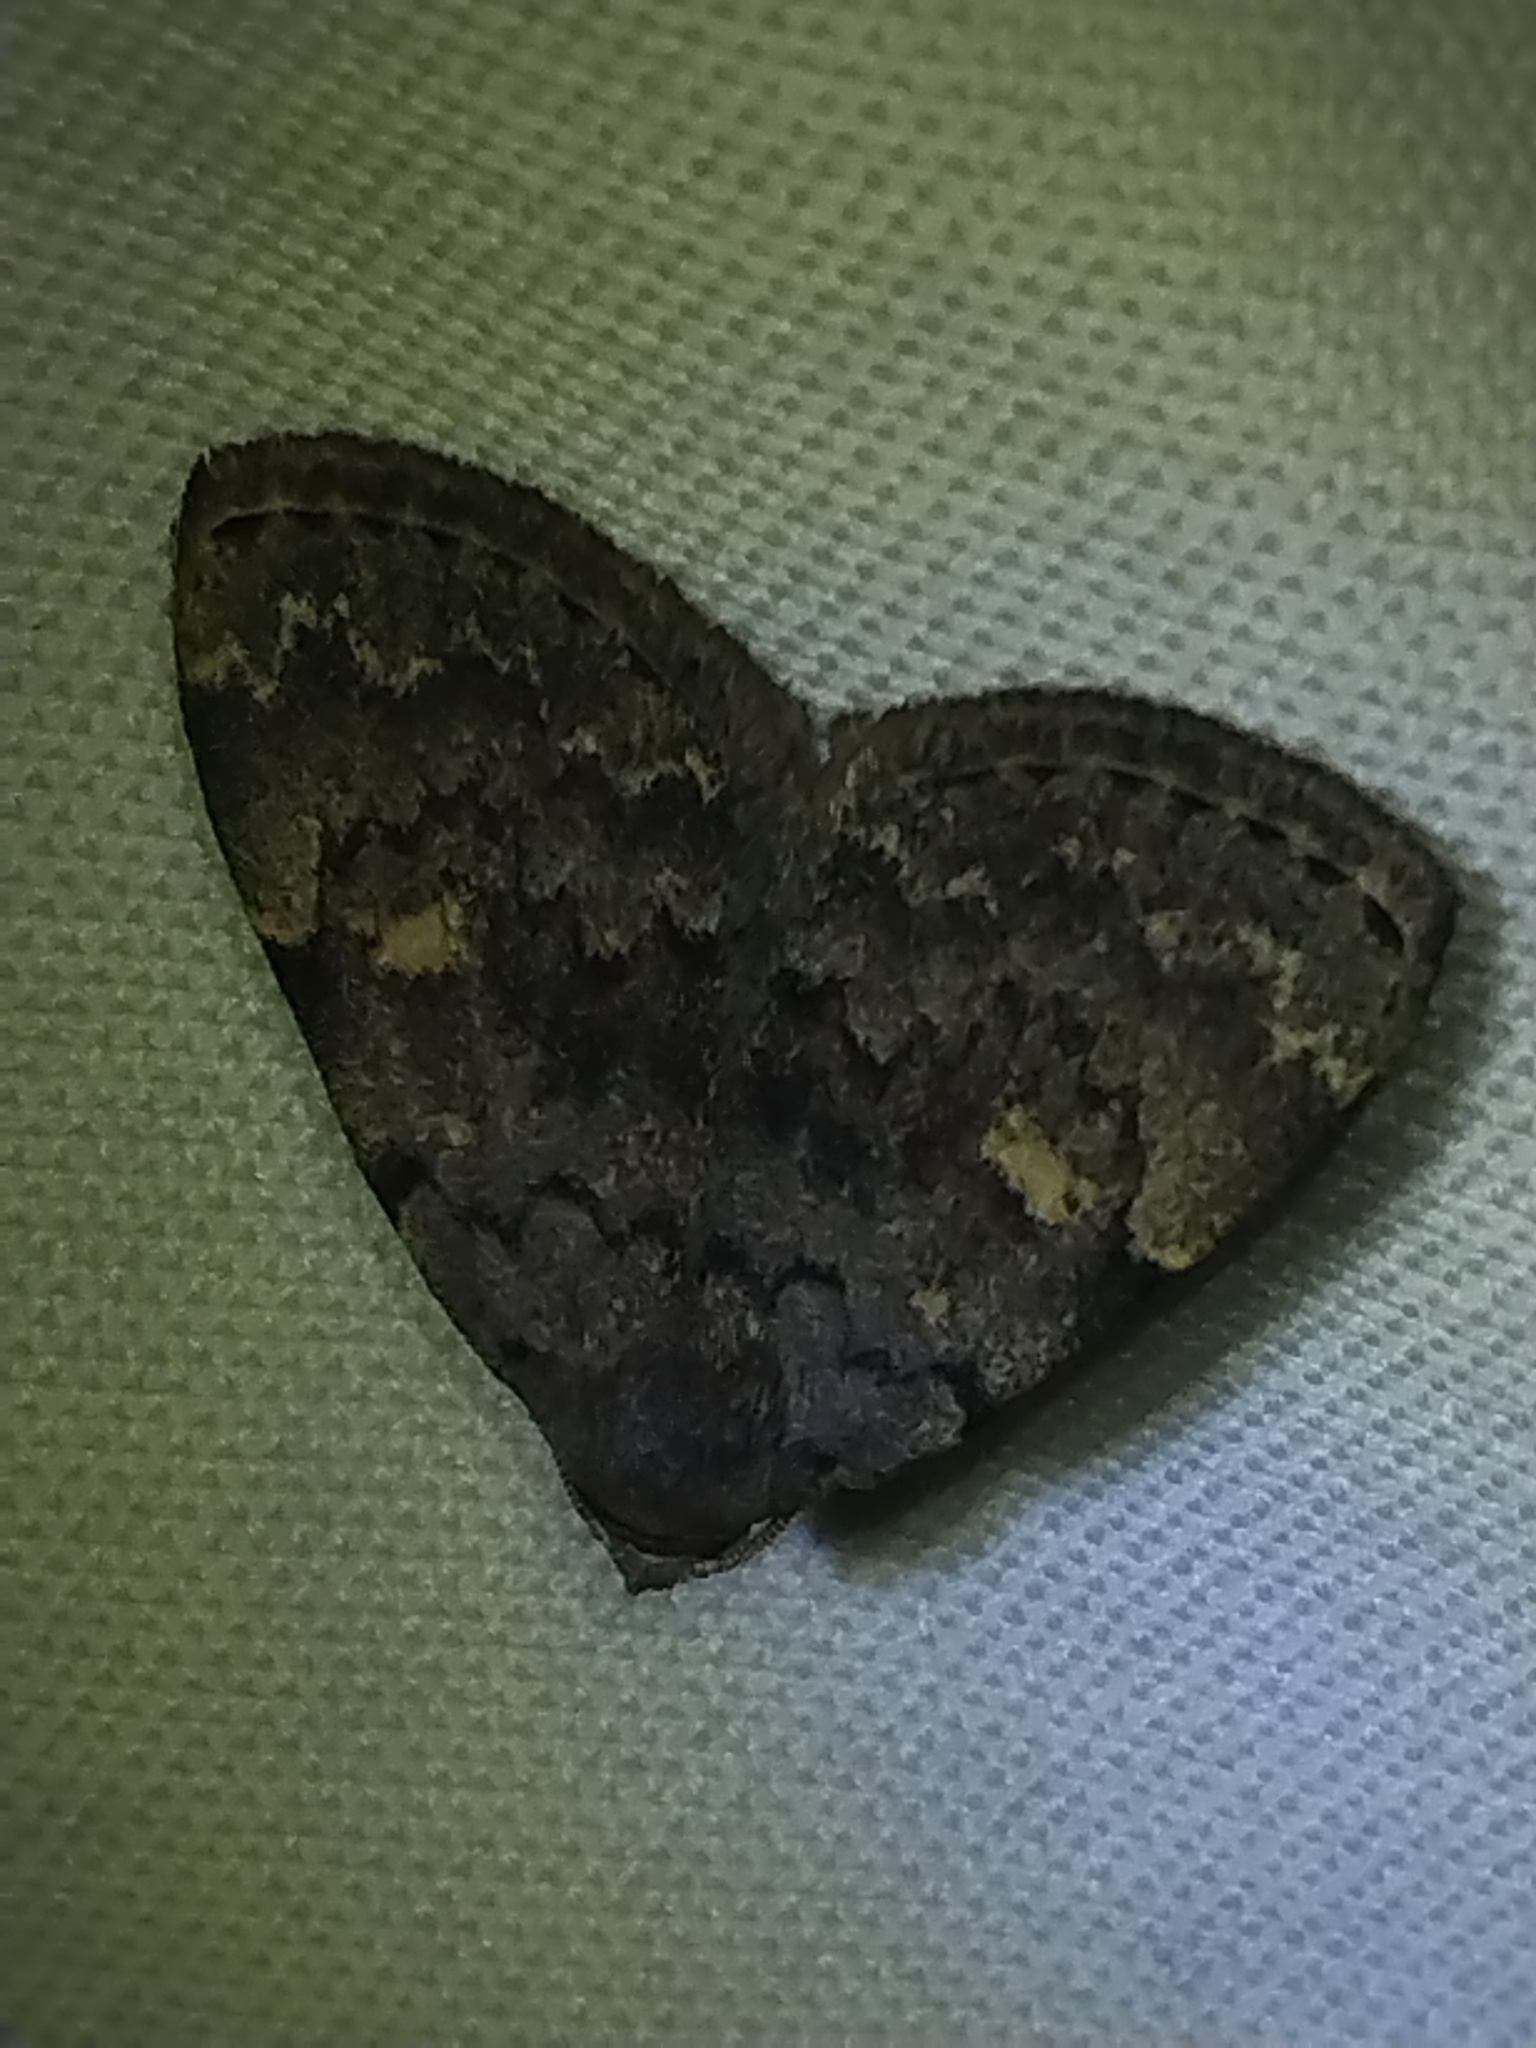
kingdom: Animalia
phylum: Arthropoda
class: Insecta
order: Lepidoptera
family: Erebidae
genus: Idia
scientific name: Idia aemula
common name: Common idia moth
